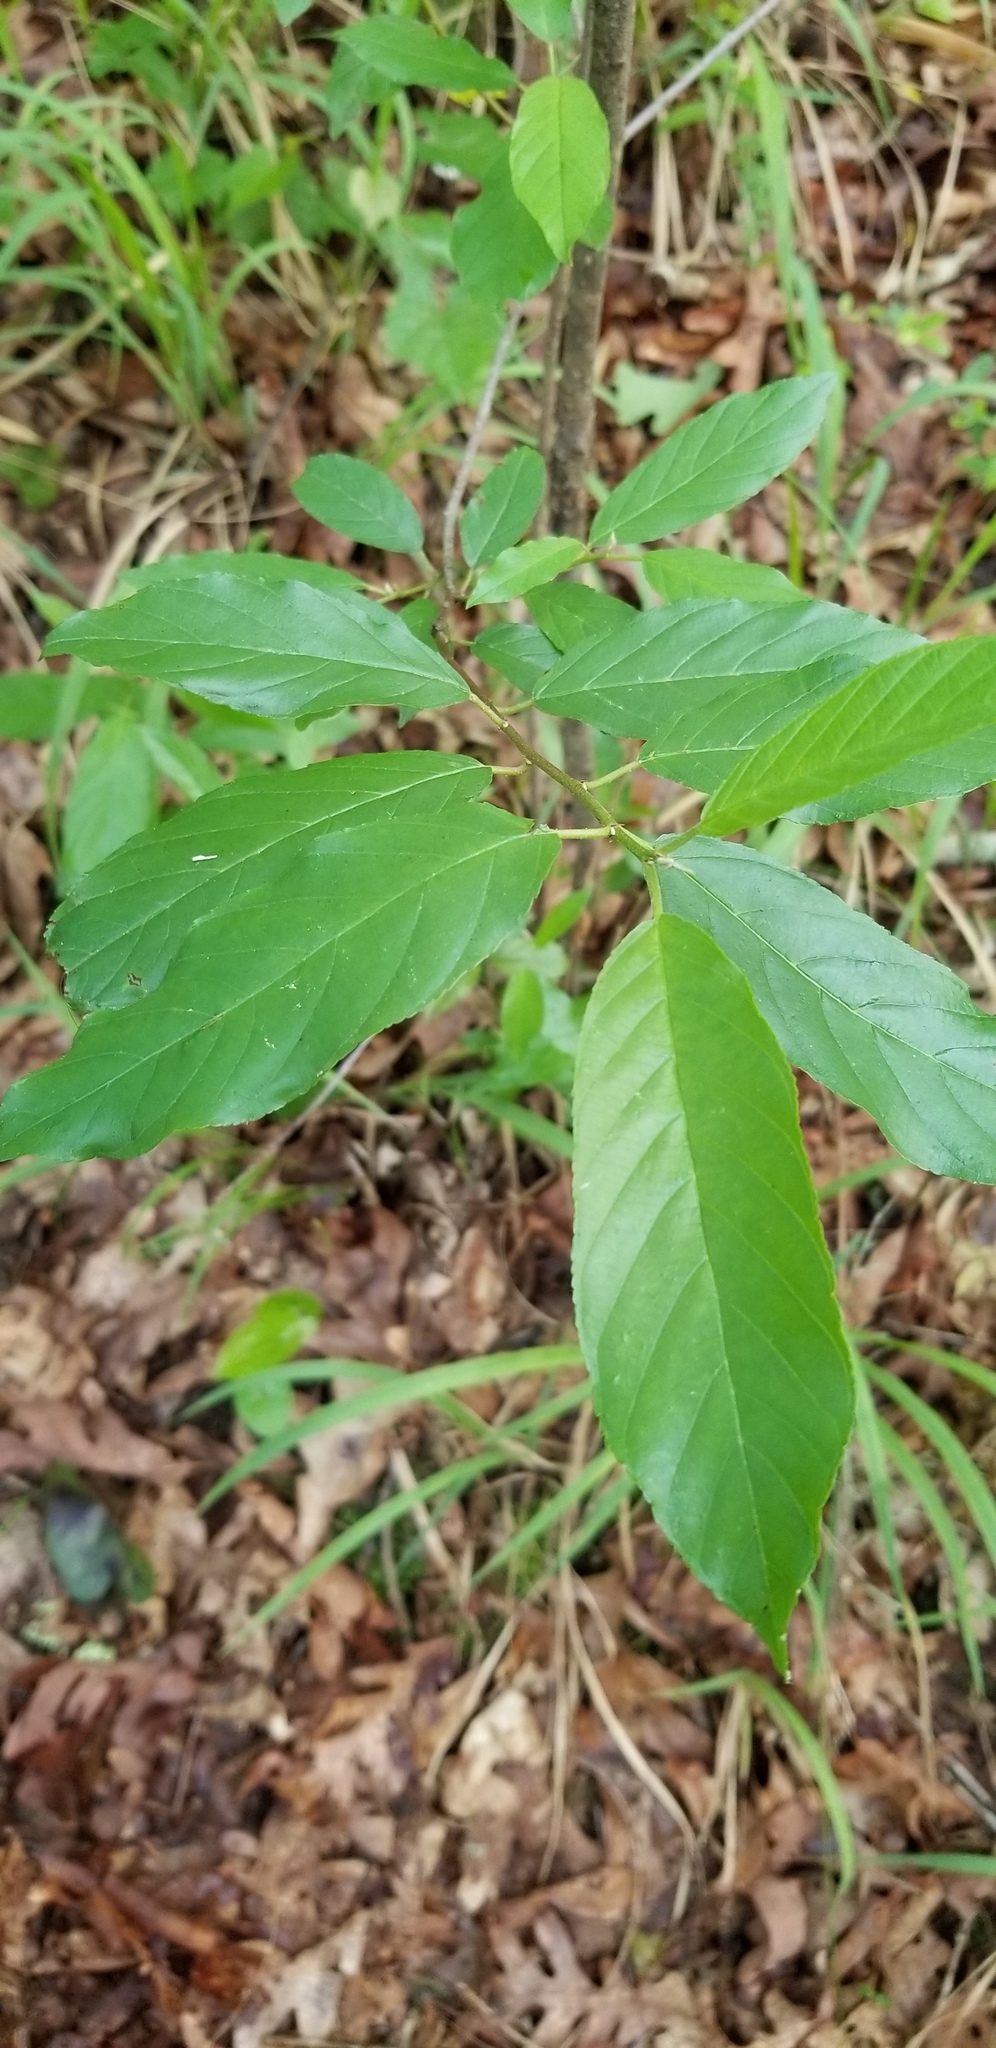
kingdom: Plantae
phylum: Tracheophyta
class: Magnoliopsida
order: Rosales
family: Rhamnaceae
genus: Frangula
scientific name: Frangula caroliniana
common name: Carolina buckthorn
